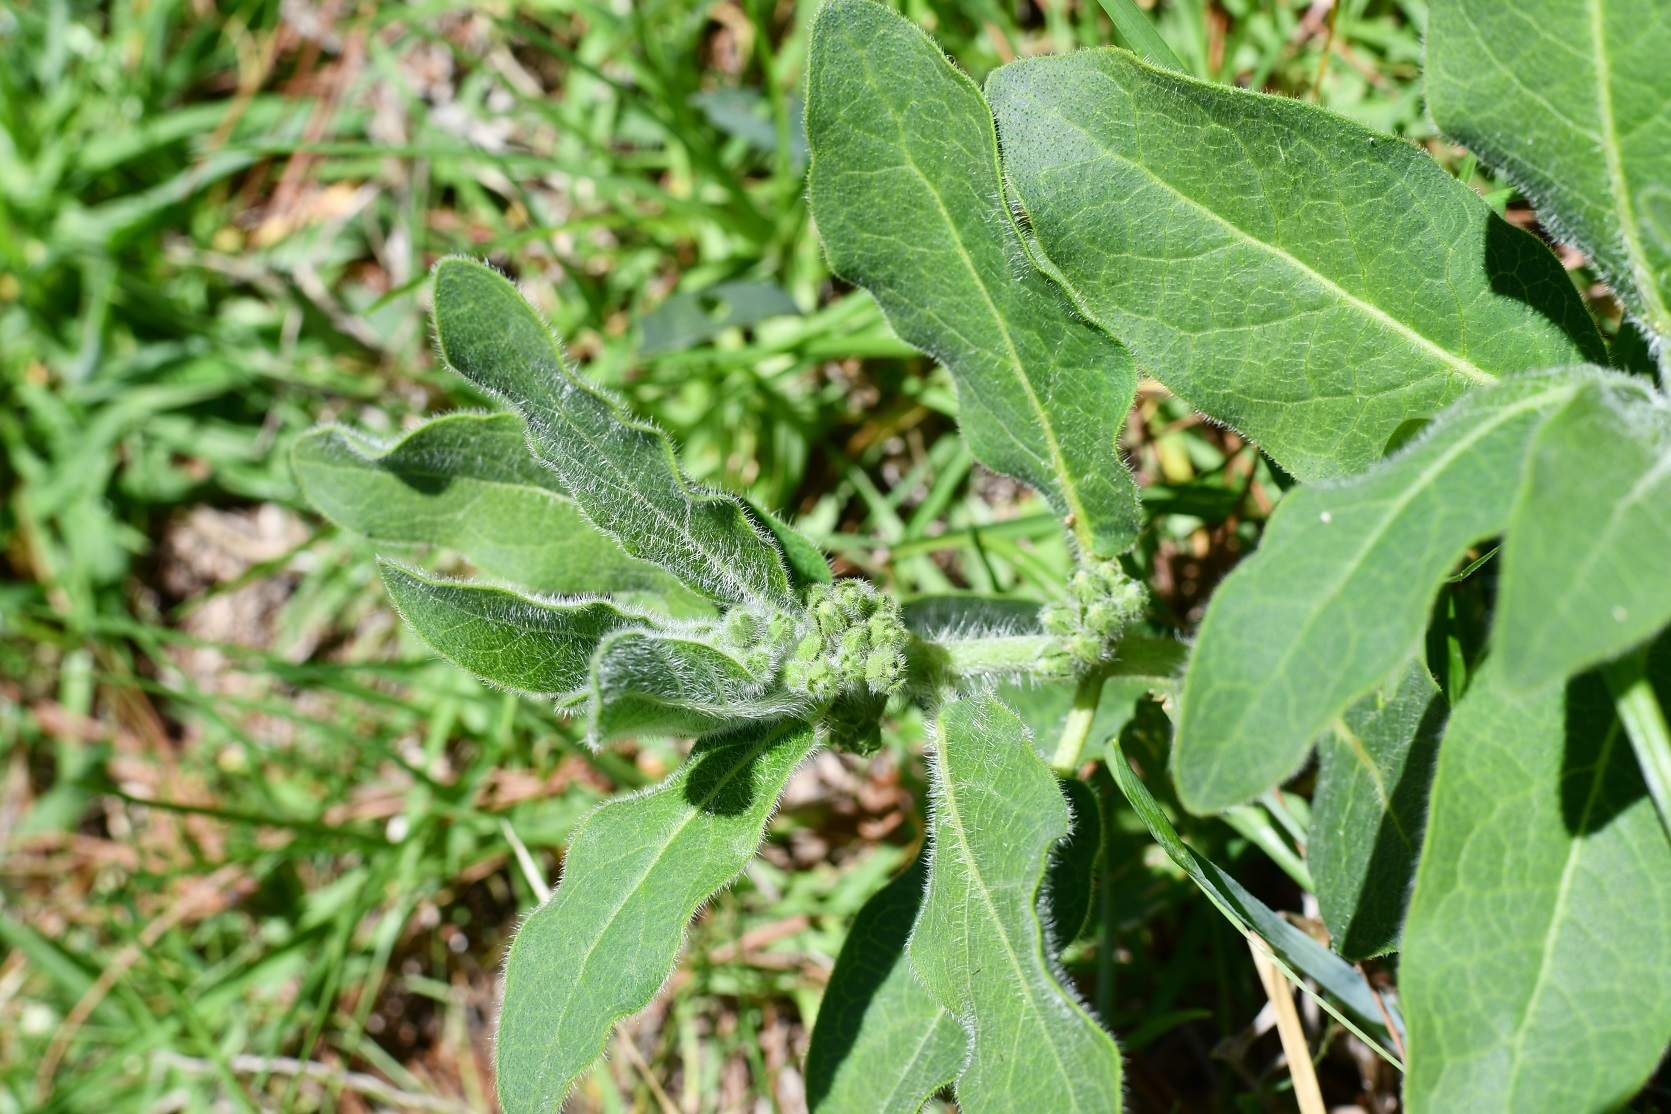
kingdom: Plantae
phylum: Tracheophyta
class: Magnoliopsida
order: Gentianales
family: Apocynaceae
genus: Pherotrichis
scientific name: Pherotrichis villosa
